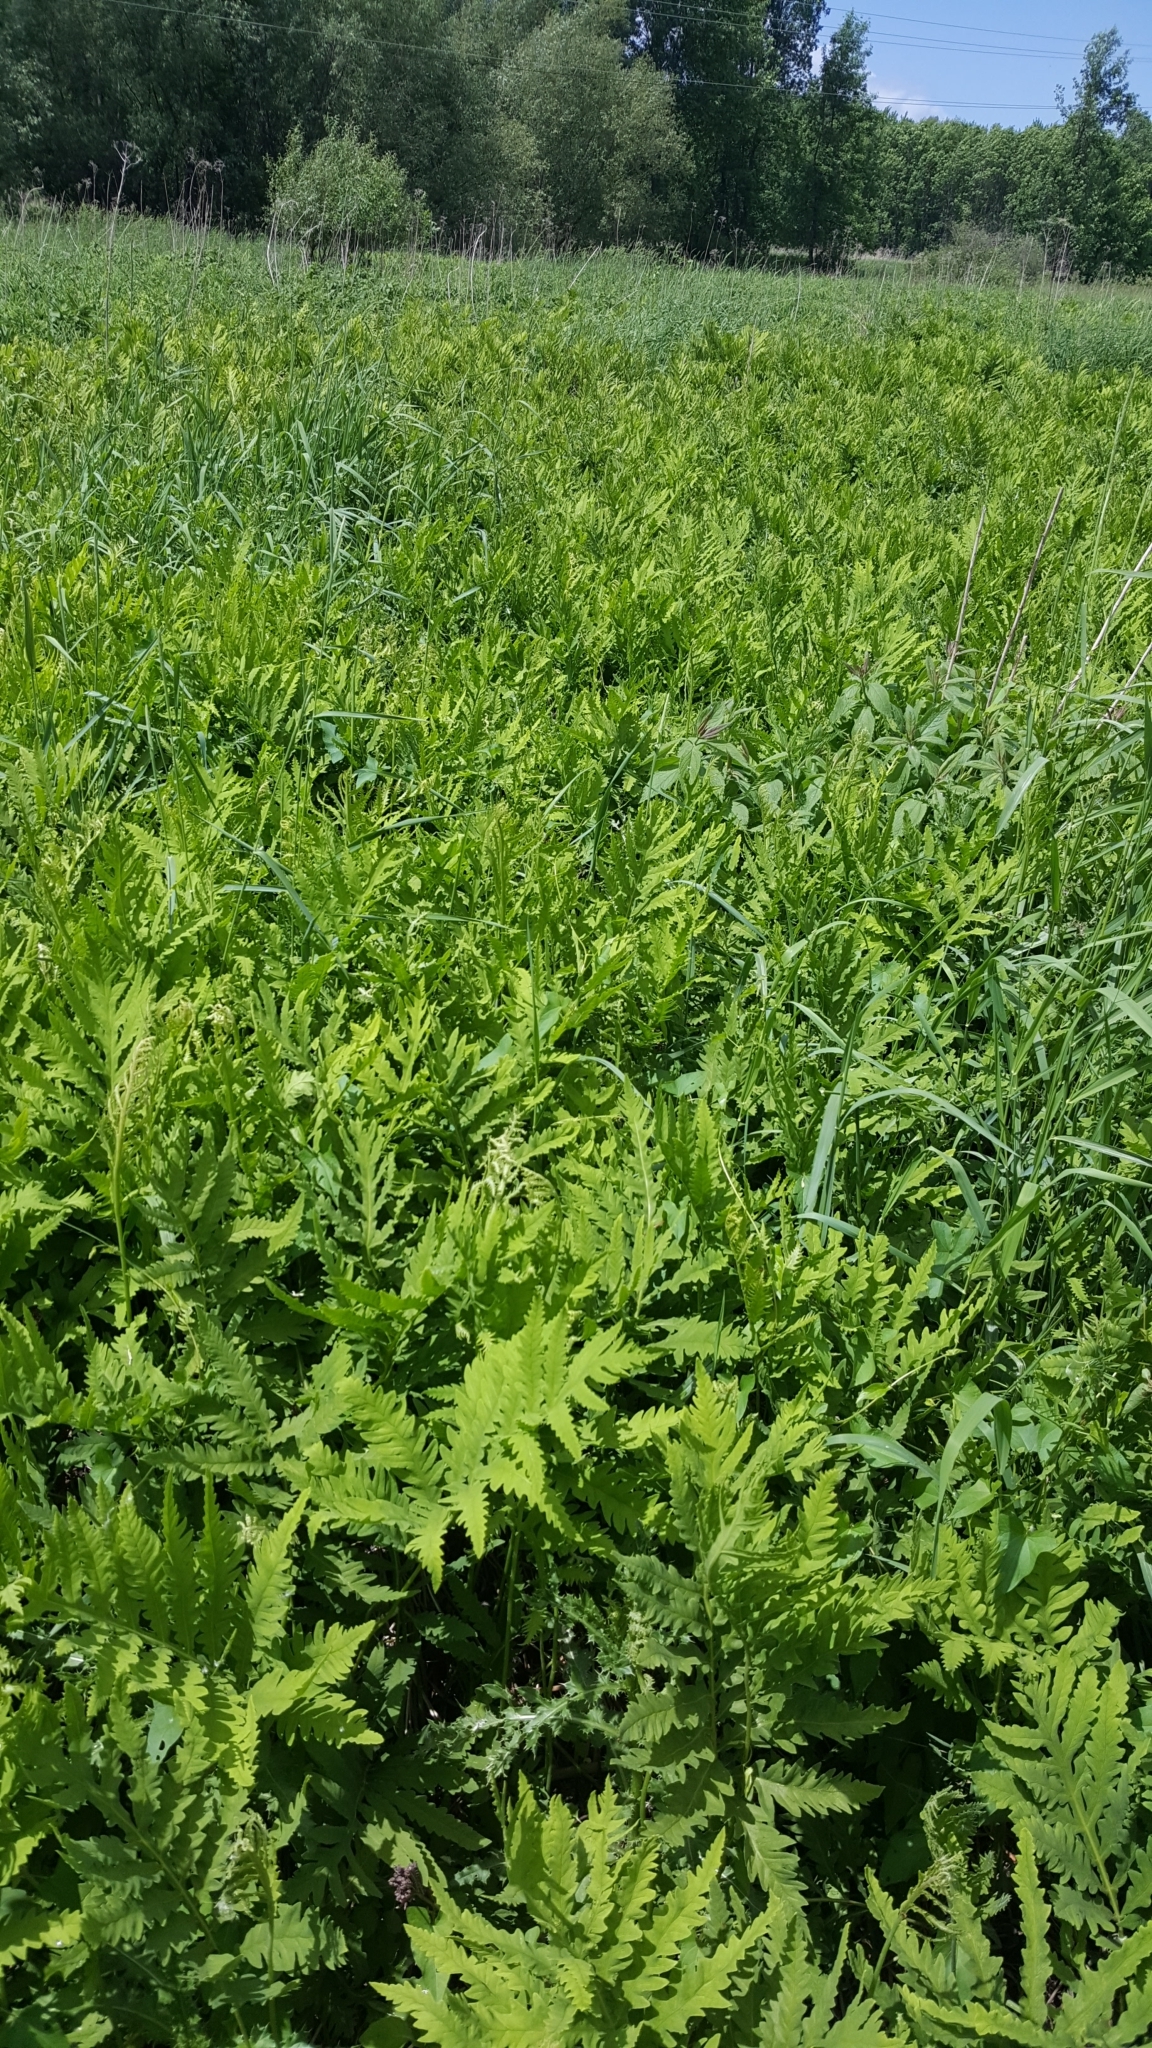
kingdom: Plantae
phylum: Tracheophyta
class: Polypodiopsida
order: Polypodiales
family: Onocleaceae
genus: Onoclea
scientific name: Onoclea sensibilis
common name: Sensitive fern
